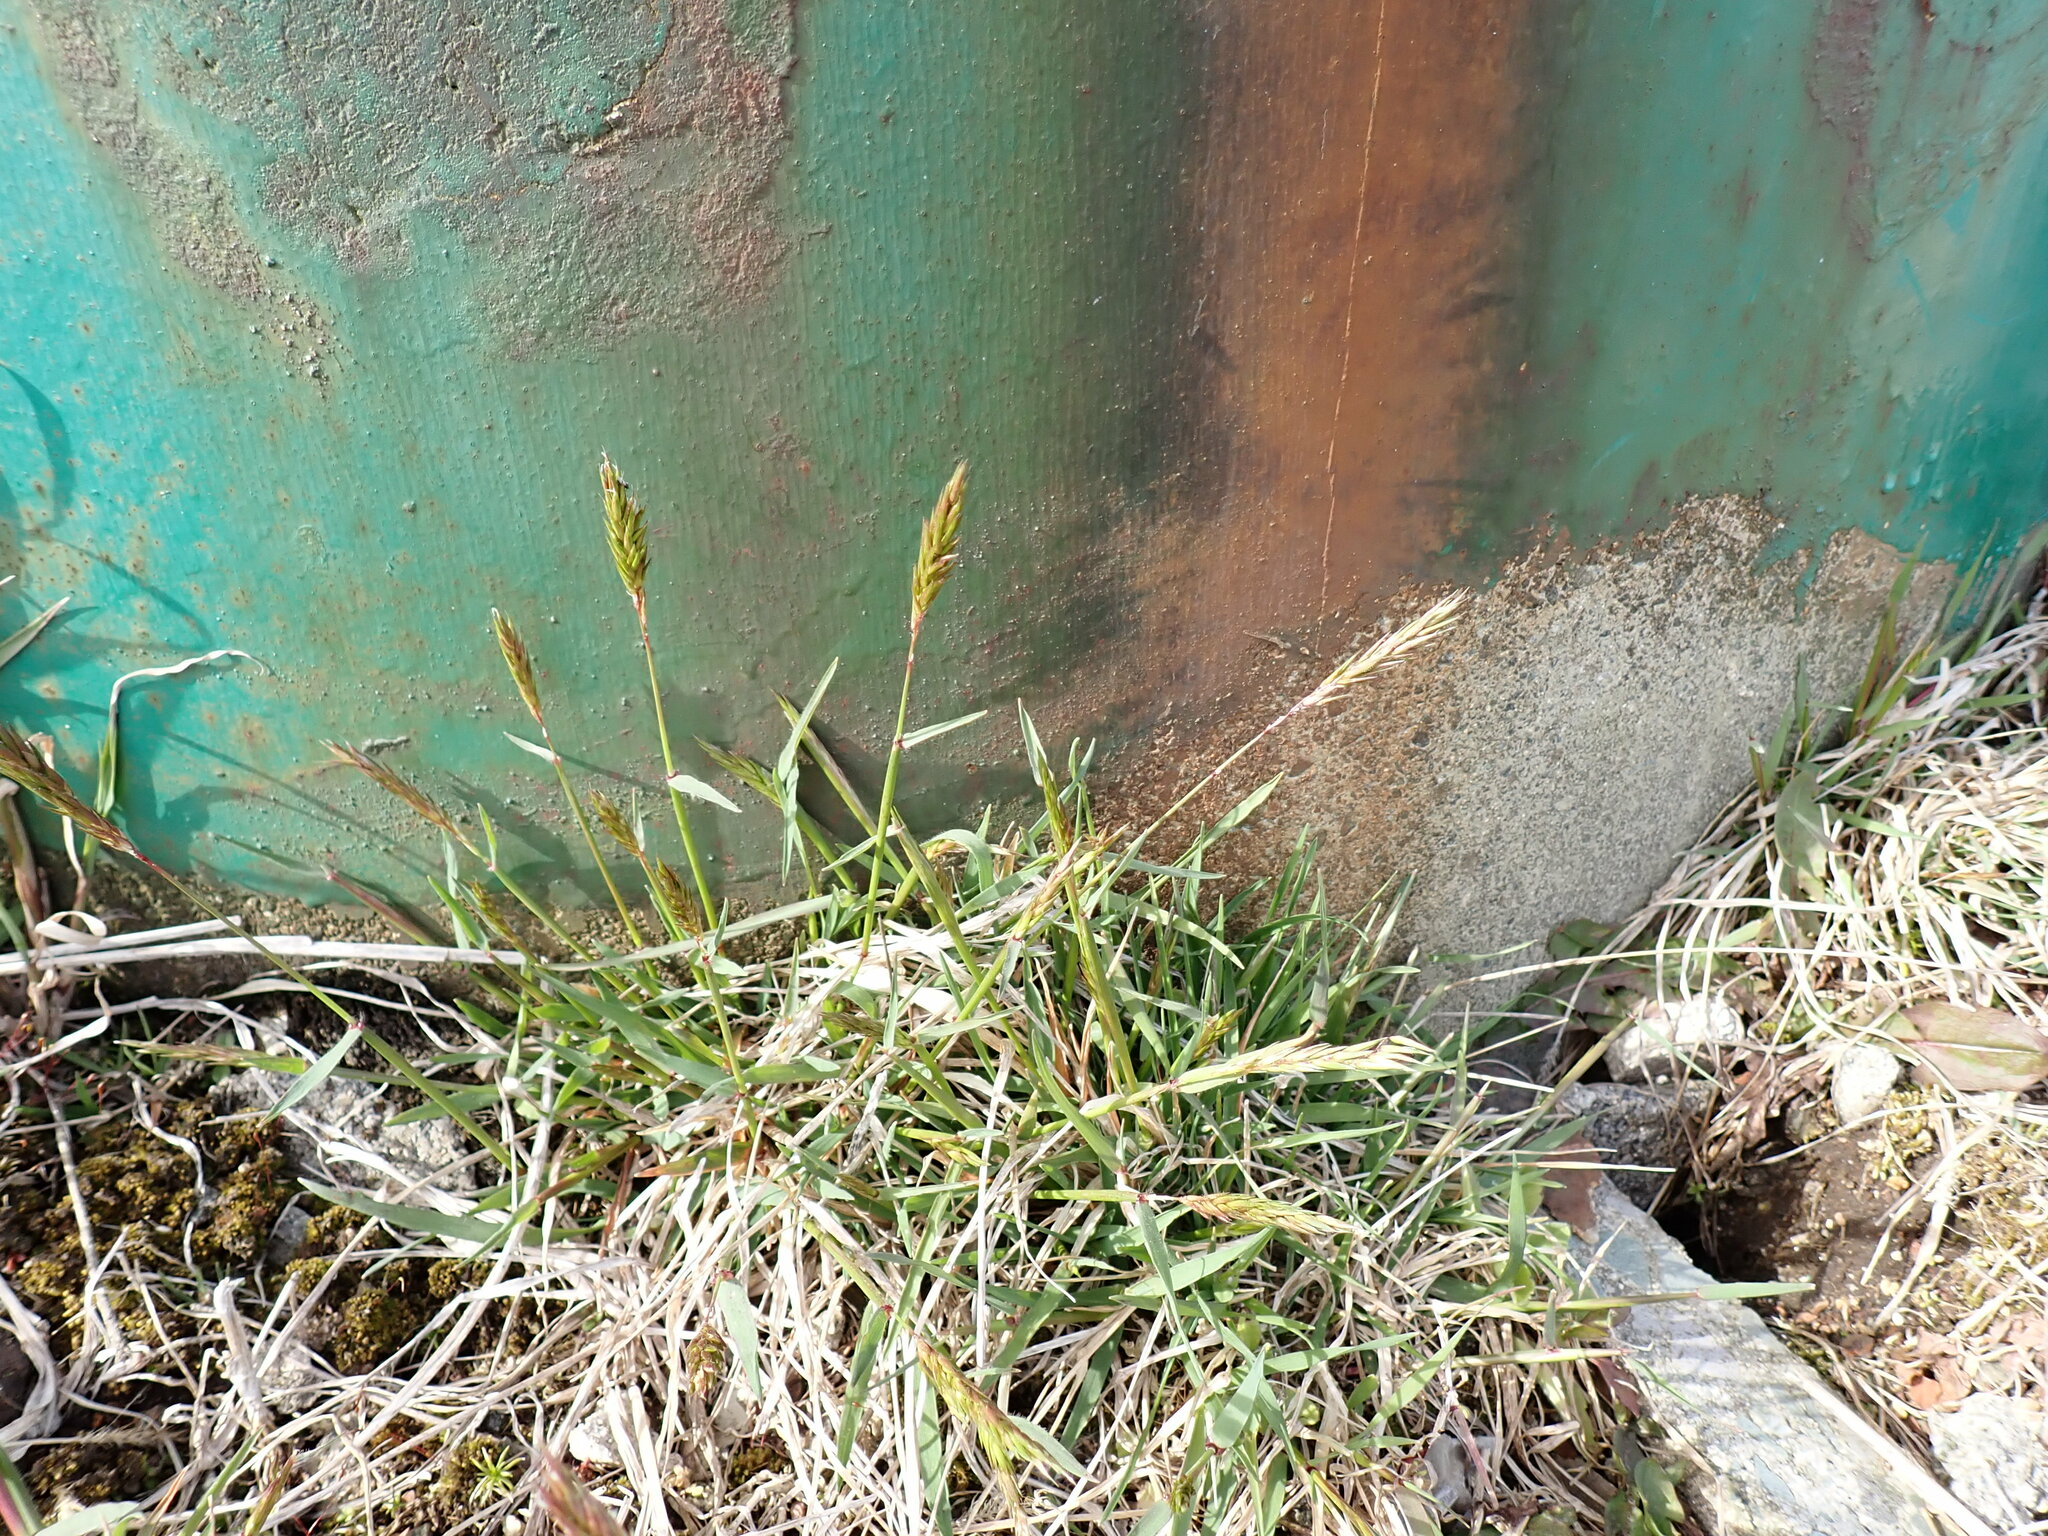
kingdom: Plantae
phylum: Tracheophyta
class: Liliopsida
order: Poales
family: Poaceae
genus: Anthoxanthum
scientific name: Anthoxanthum odoratum
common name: Sweet vernalgrass
